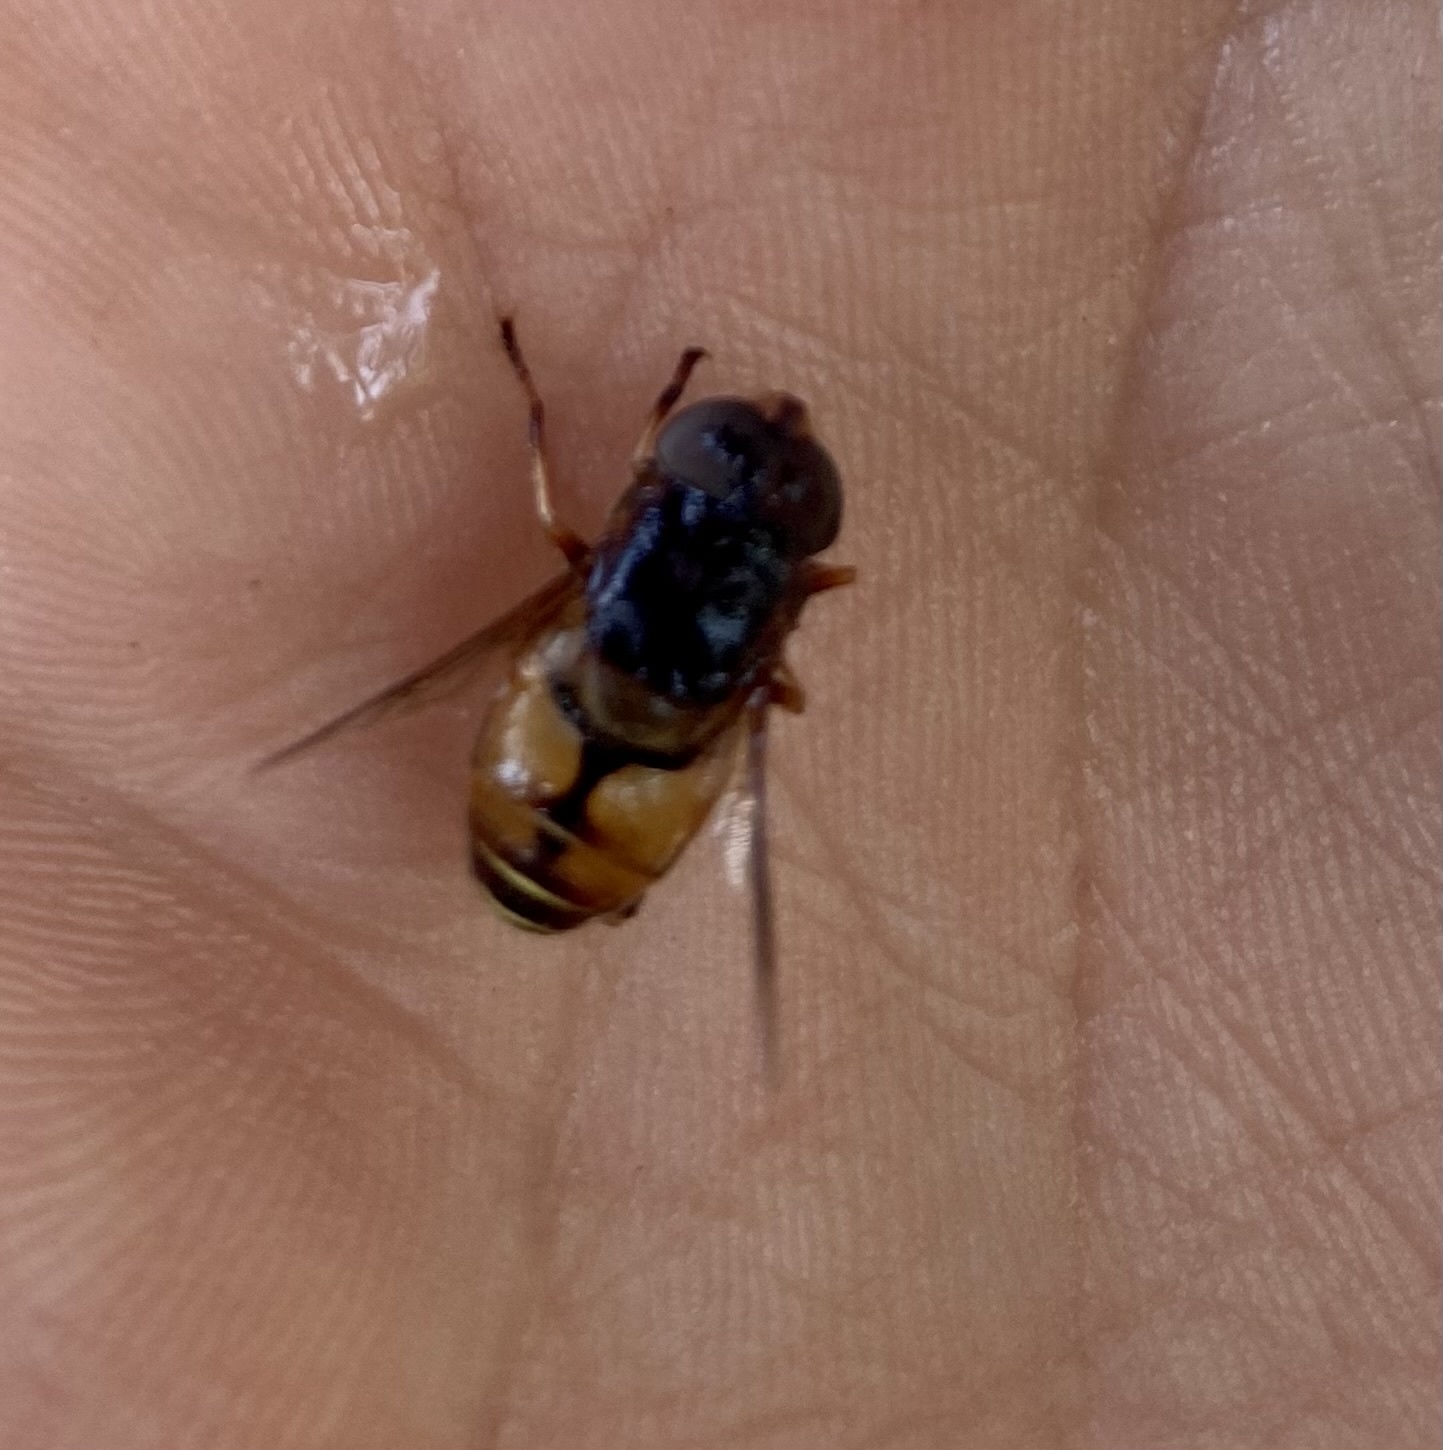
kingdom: Animalia
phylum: Arthropoda
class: Insecta
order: Diptera
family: Syrphidae
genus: Palpada
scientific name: Palpada vinetorum
